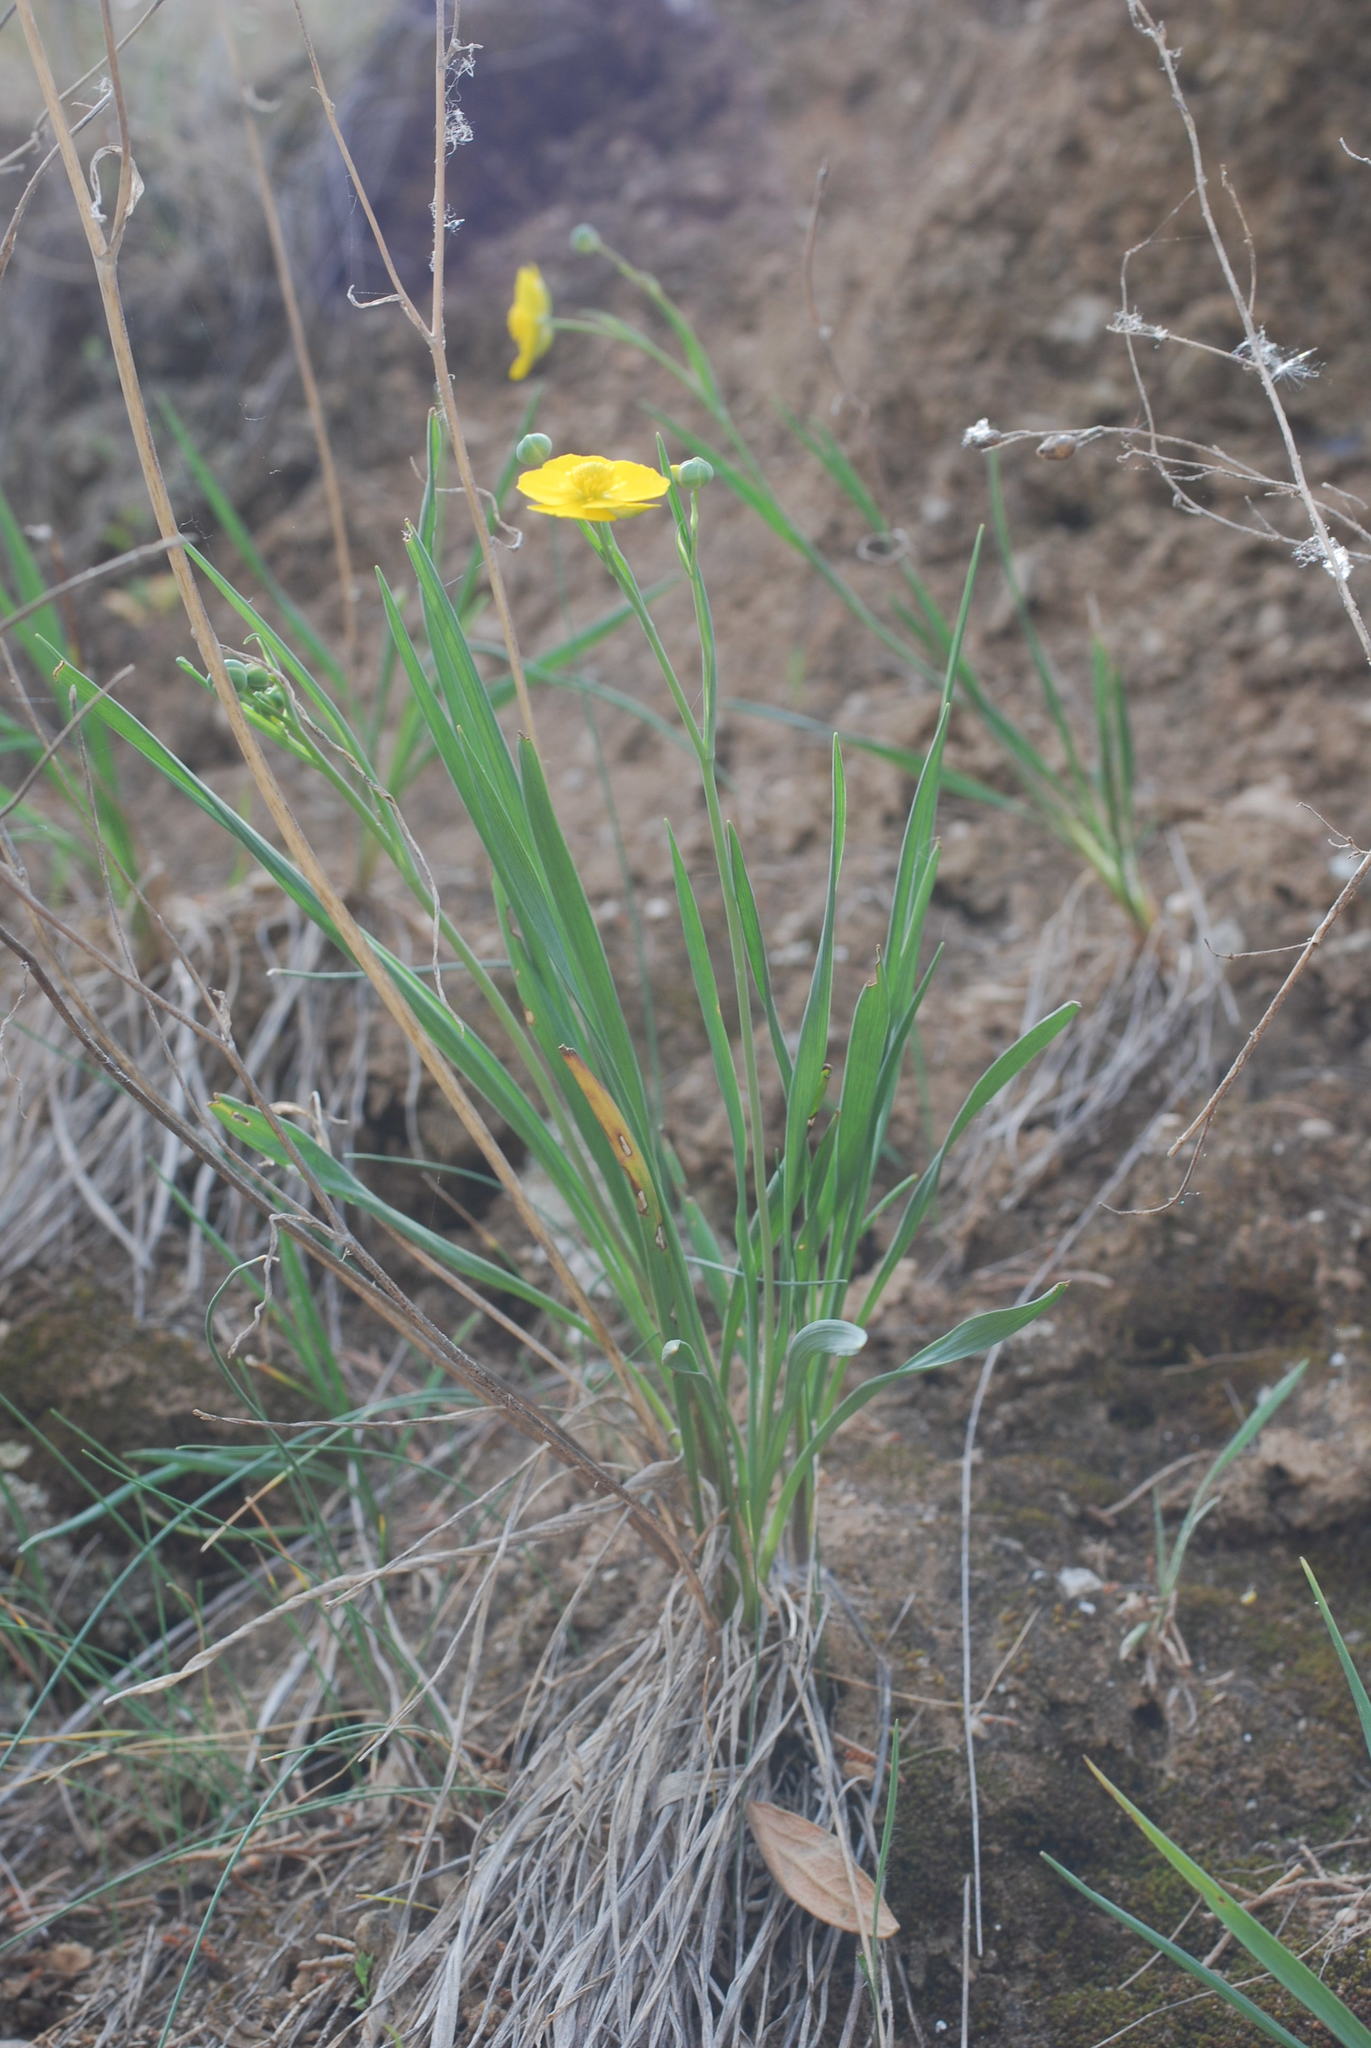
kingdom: Plantae
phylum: Tracheophyta
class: Magnoliopsida
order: Ranunculales
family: Ranunculaceae
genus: Ranunculus
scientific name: Ranunculus gramineus
